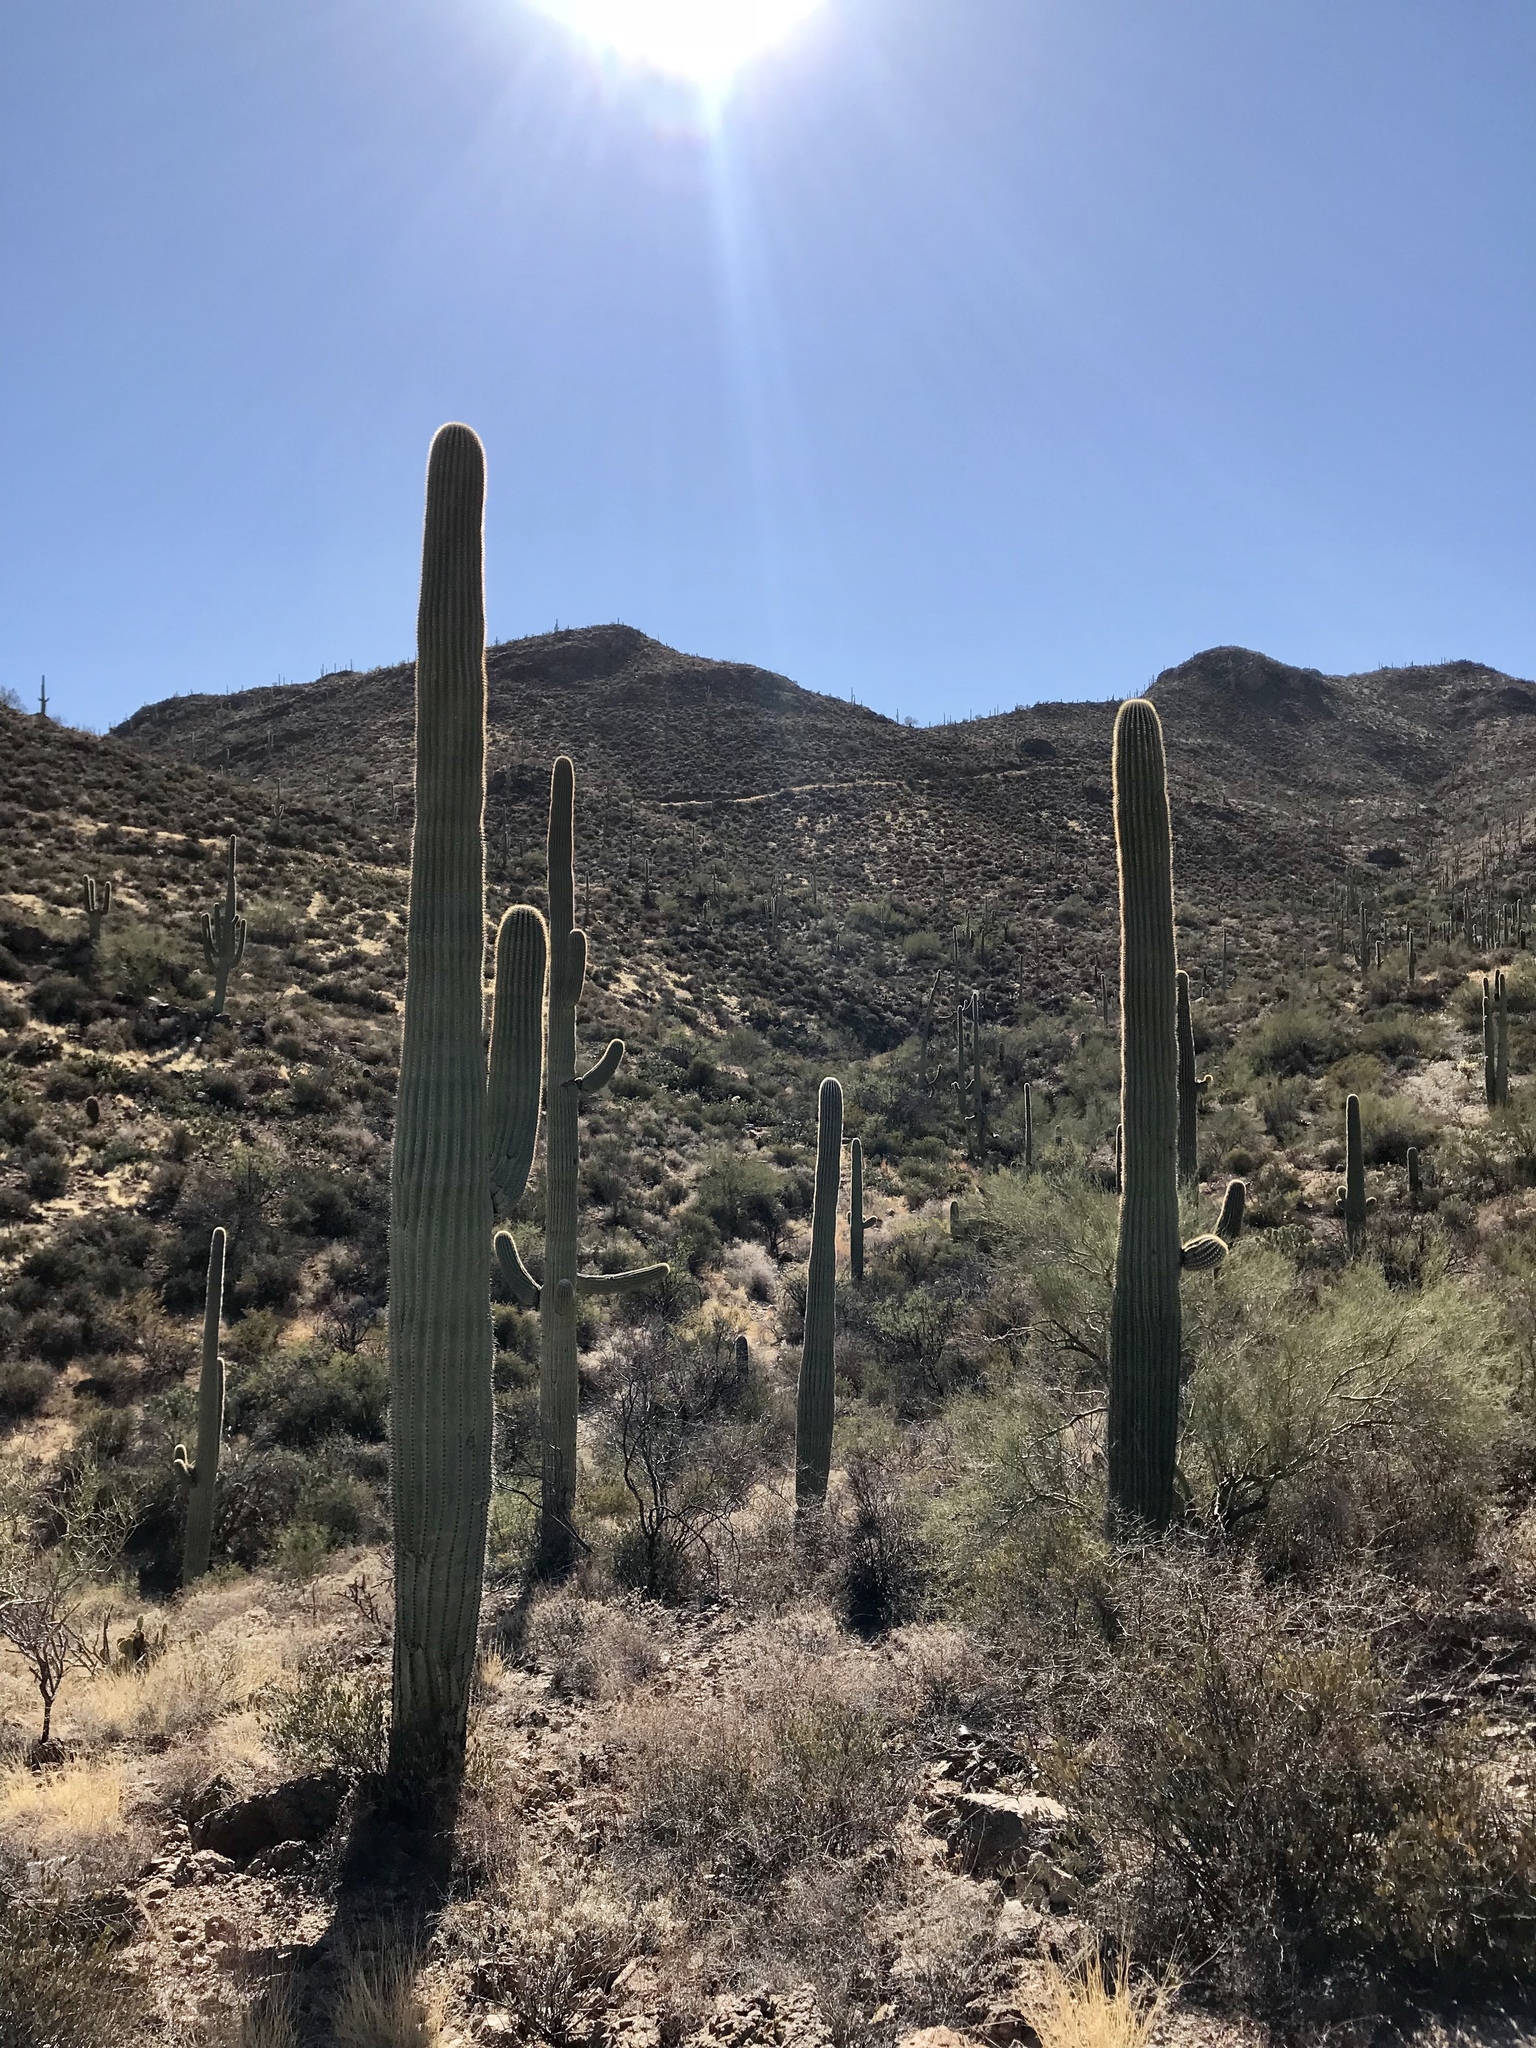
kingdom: Plantae
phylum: Tracheophyta
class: Magnoliopsida
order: Caryophyllales
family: Cactaceae
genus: Carnegiea
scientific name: Carnegiea gigantea
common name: Saguaro
